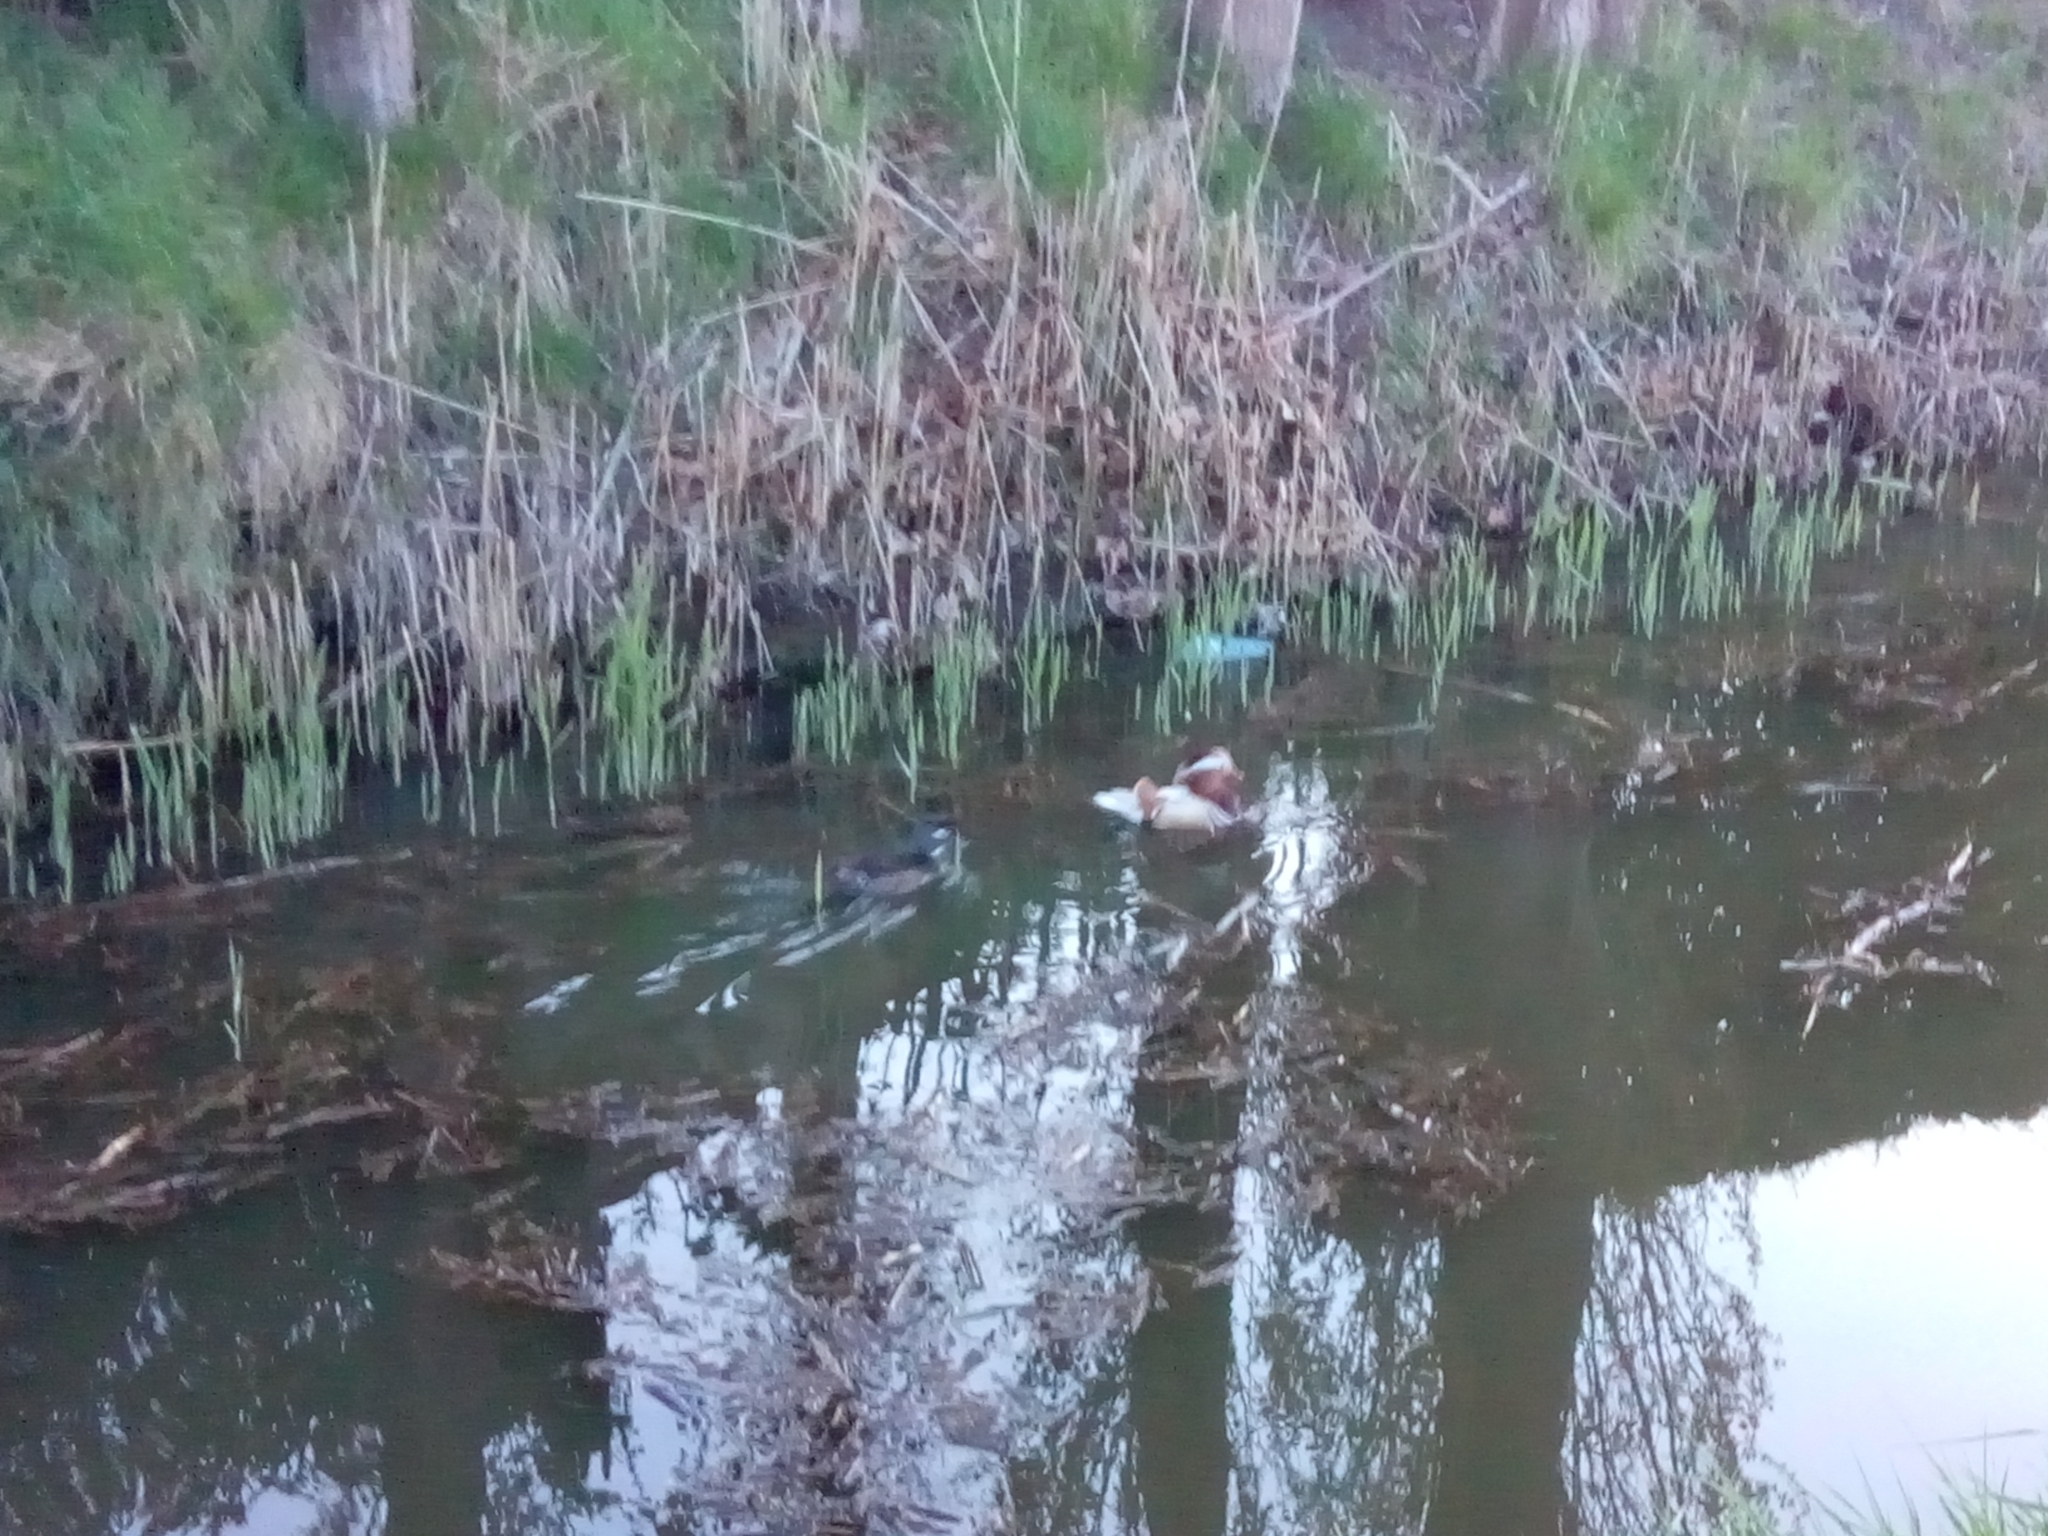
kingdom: Animalia
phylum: Chordata
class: Aves
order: Anseriformes
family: Anatidae
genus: Aix
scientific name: Aix galericulata
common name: Mandarin duck
